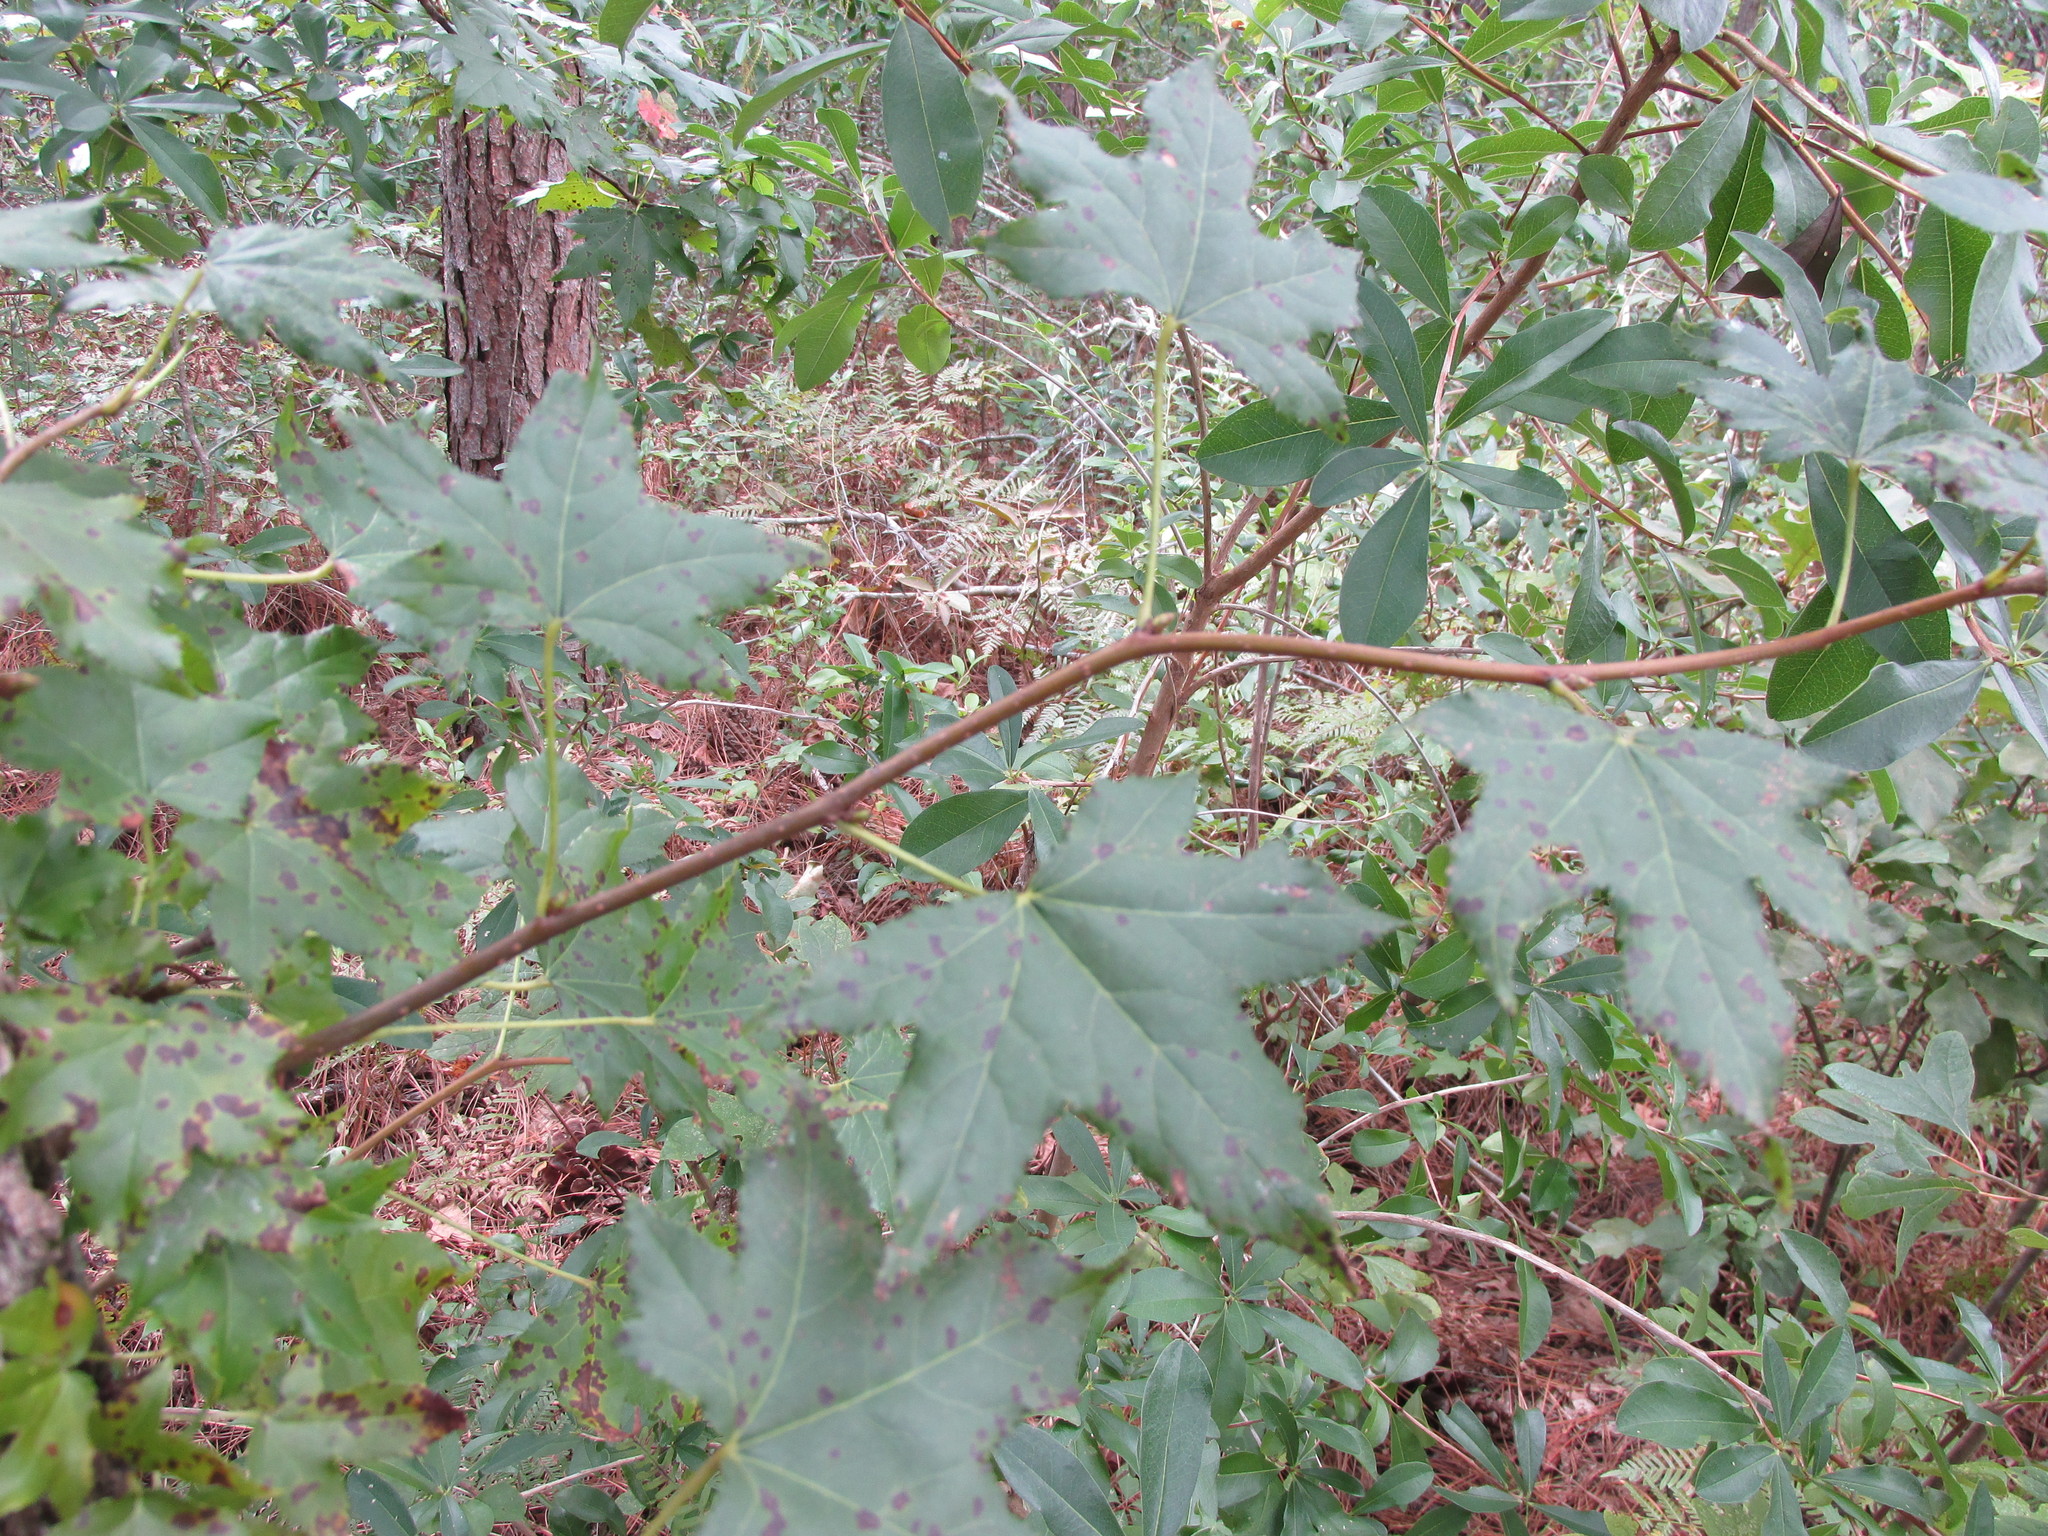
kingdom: Plantae
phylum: Tracheophyta
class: Magnoliopsida
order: Saxifragales
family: Altingiaceae
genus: Liquidambar
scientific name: Liquidambar styraciflua
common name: Sweet gum
